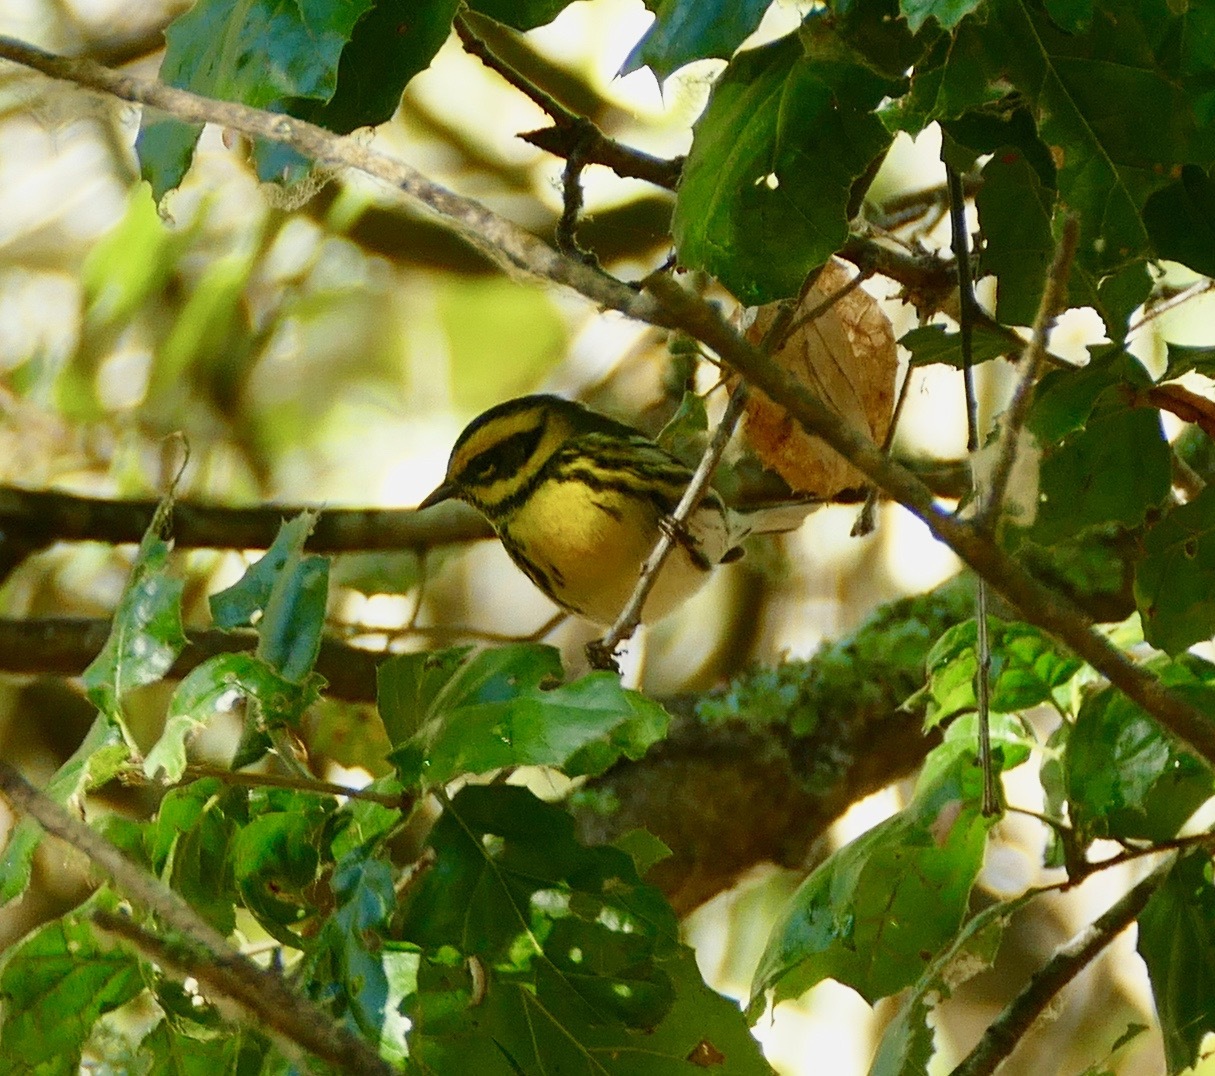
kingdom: Animalia
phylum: Chordata
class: Aves
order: Passeriformes
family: Parulidae
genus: Setophaga
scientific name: Setophaga townsendi
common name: Townsend's warbler
